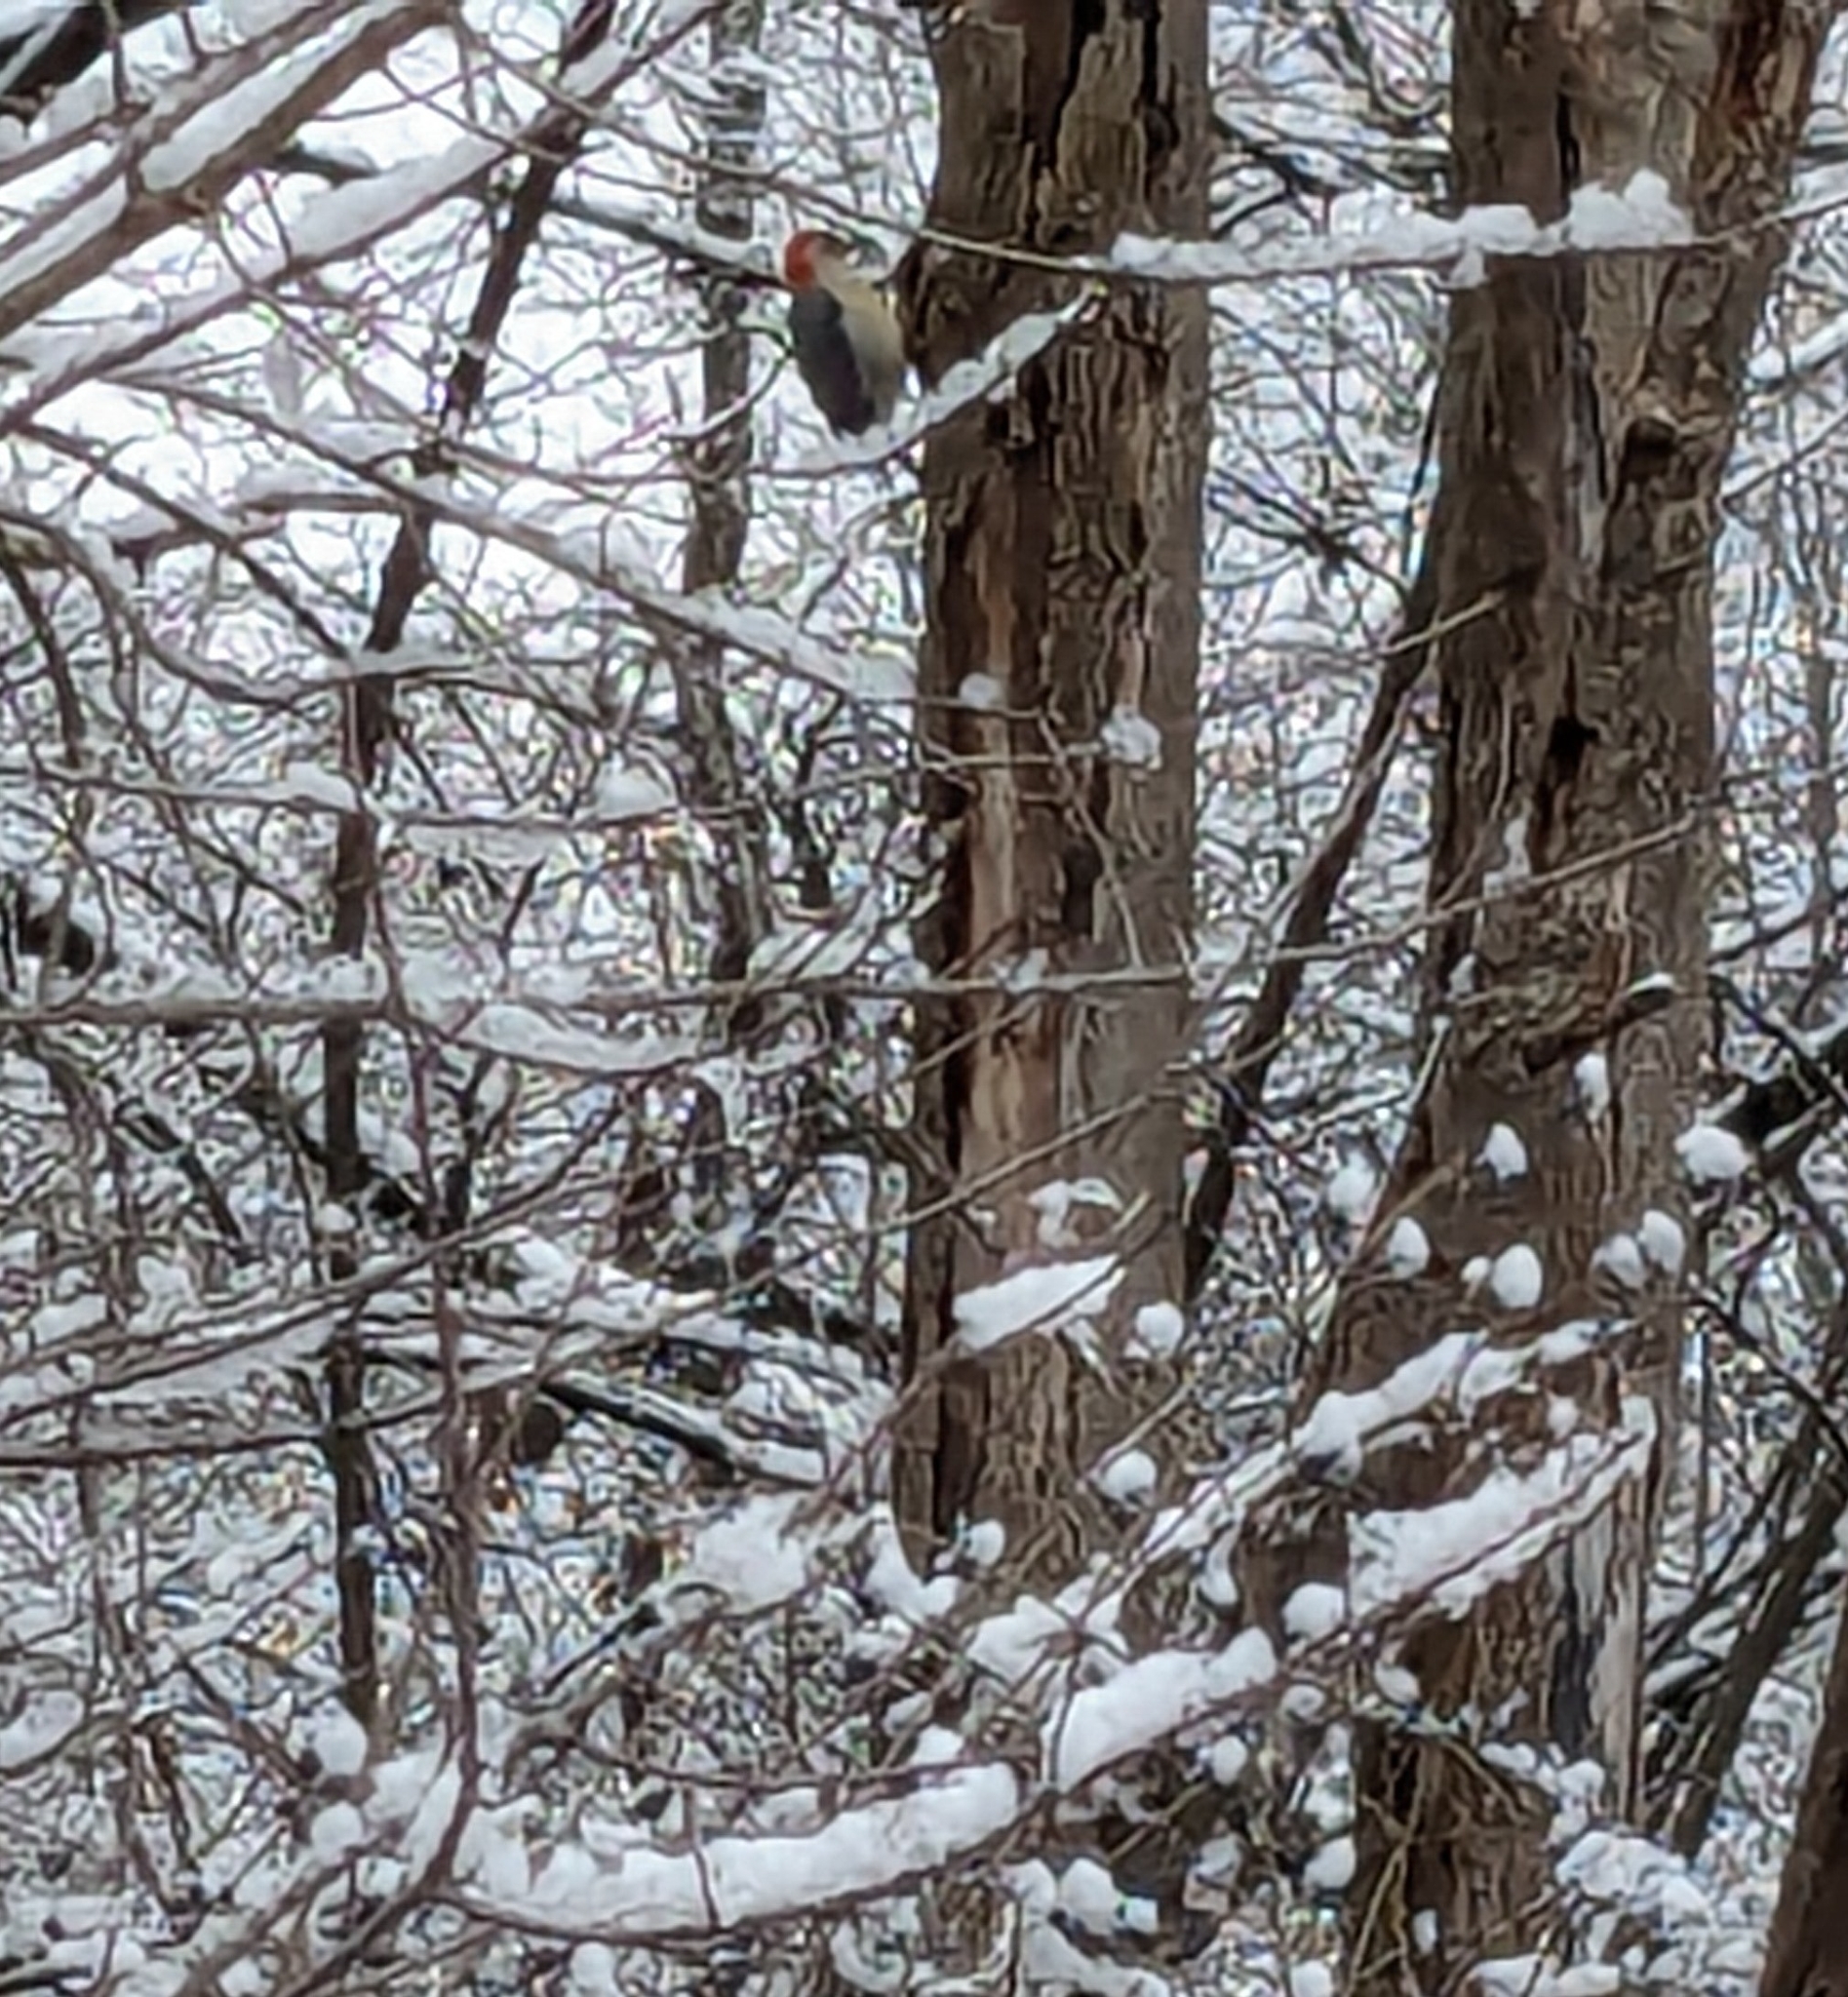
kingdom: Animalia
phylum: Chordata
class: Aves
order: Piciformes
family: Picidae
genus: Melanerpes
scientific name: Melanerpes carolinus
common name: Red-bellied woodpecker
